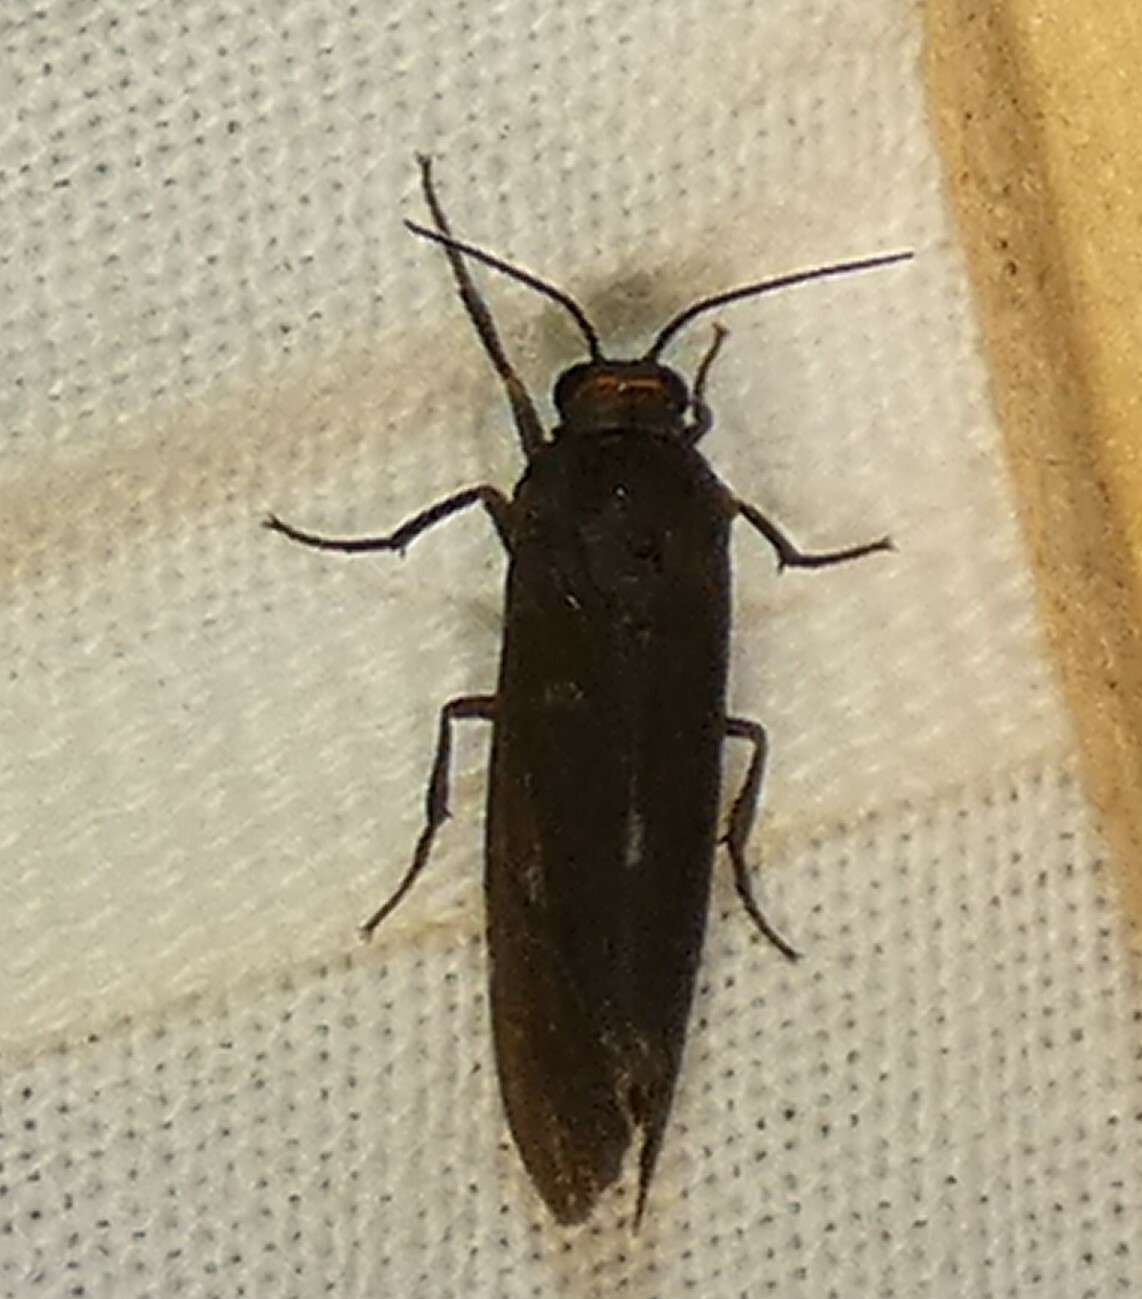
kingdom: Animalia
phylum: Arthropoda
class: Insecta
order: Lepidoptera
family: Erebidae
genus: Virbia
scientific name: Virbia laeta
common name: Joyful holomelina moth
